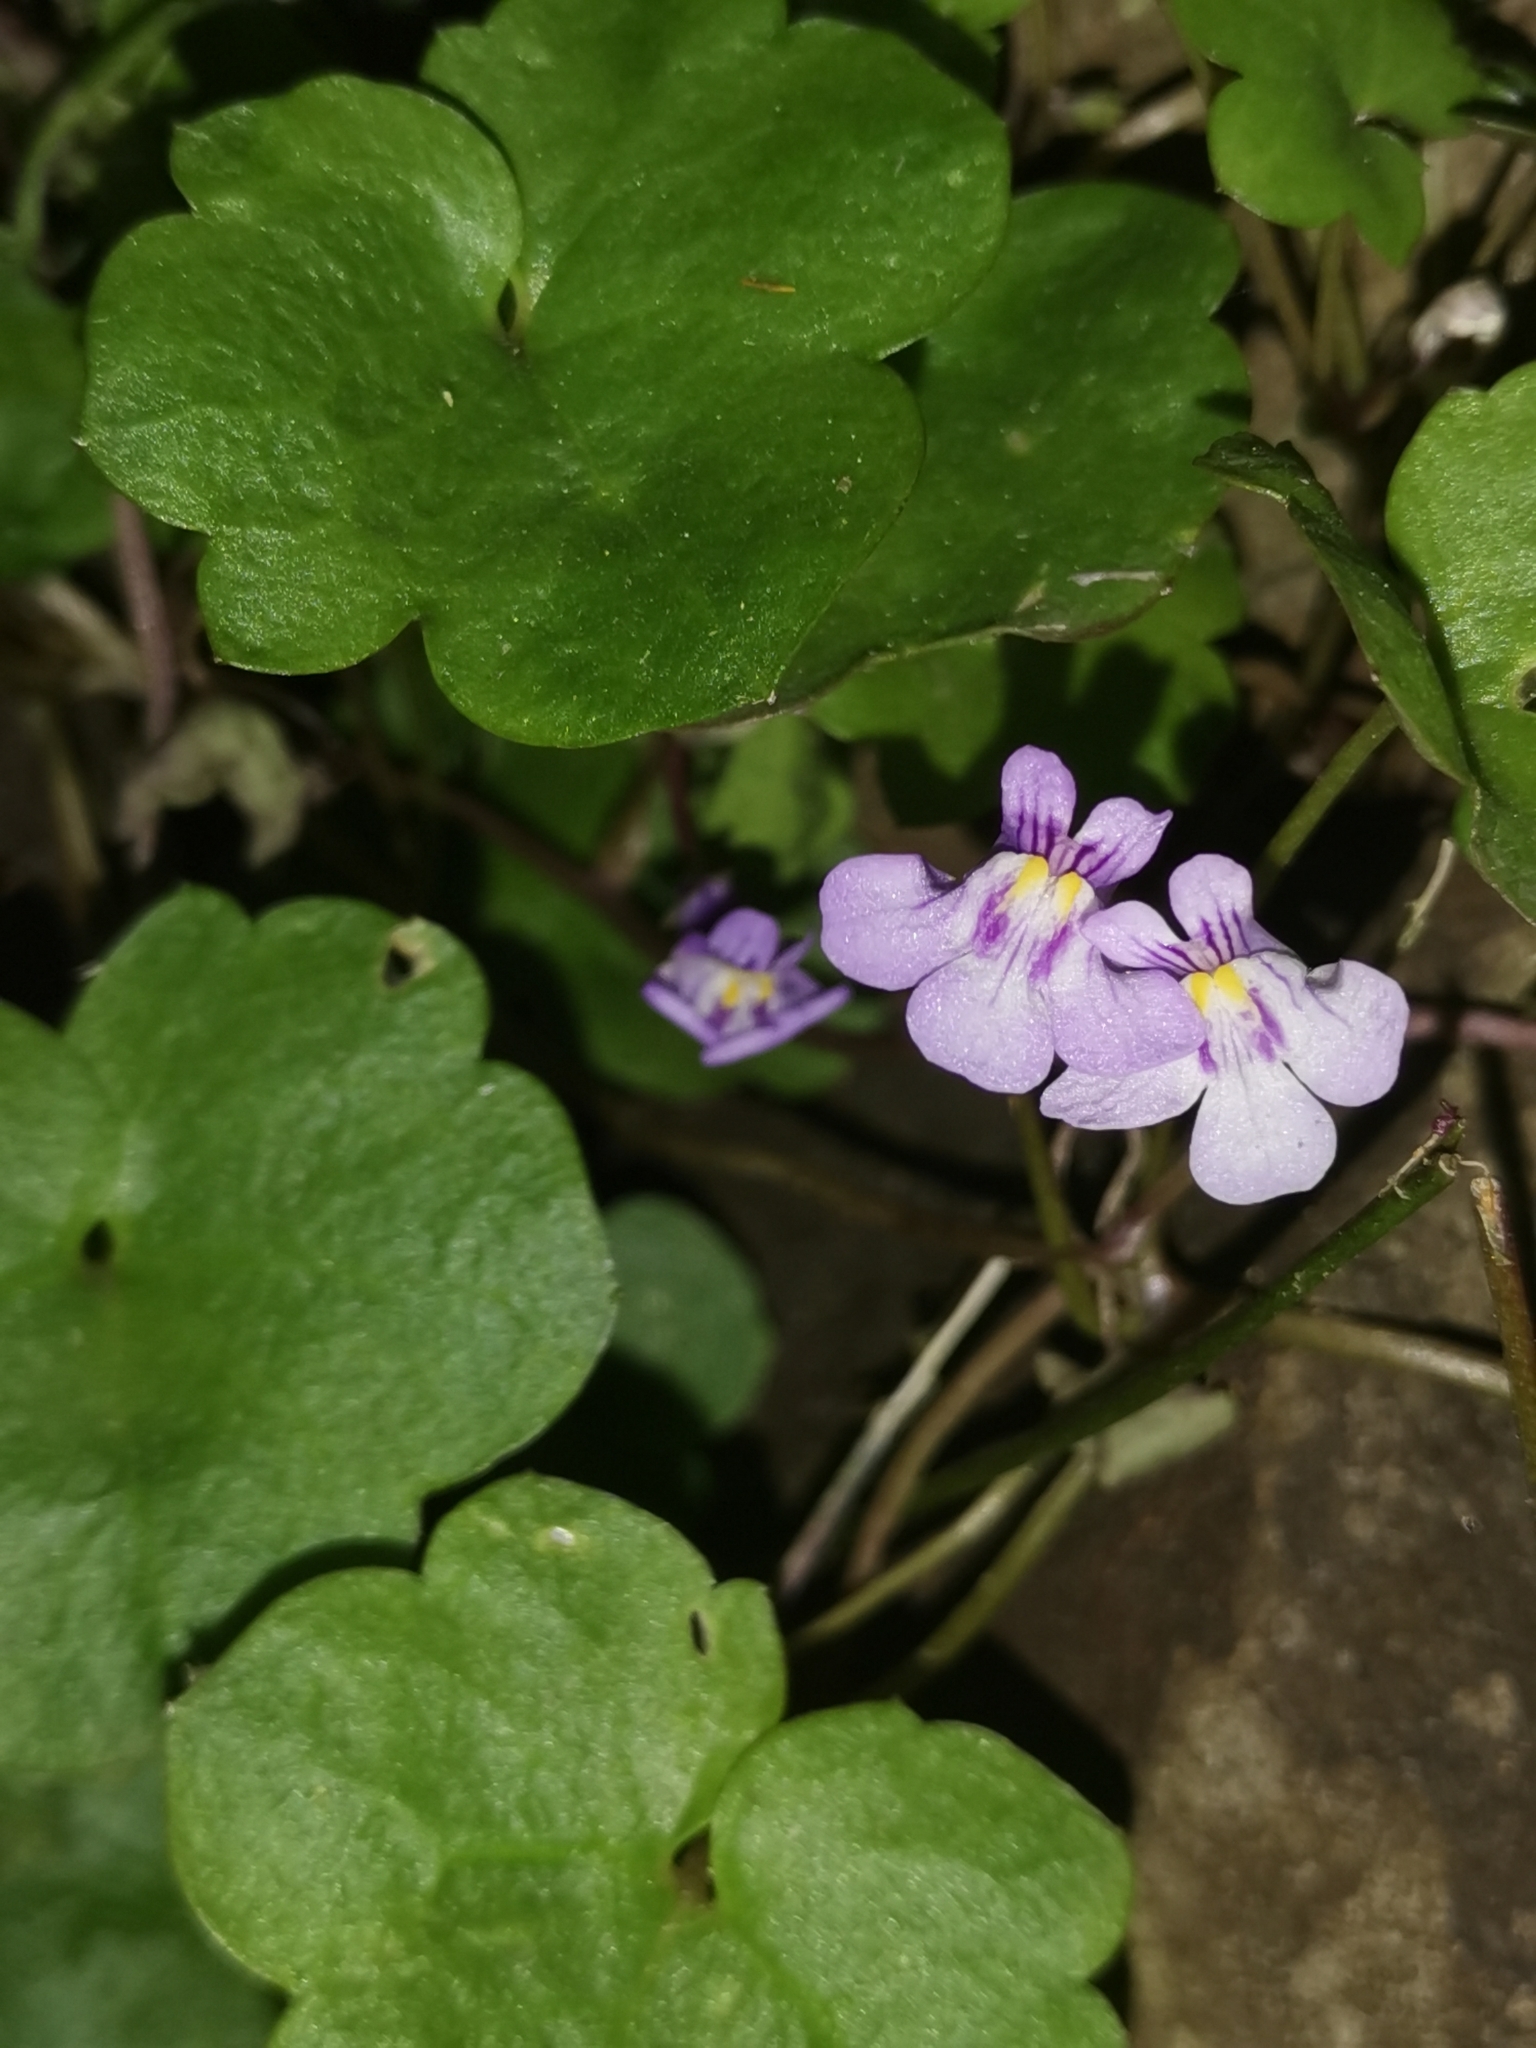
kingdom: Plantae
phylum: Tracheophyta
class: Magnoliopsida
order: Lamiales
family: Plantaginaceae
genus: Cymbalaria
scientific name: Cymbalaria muralis
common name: Ivy-leaved toadflax
